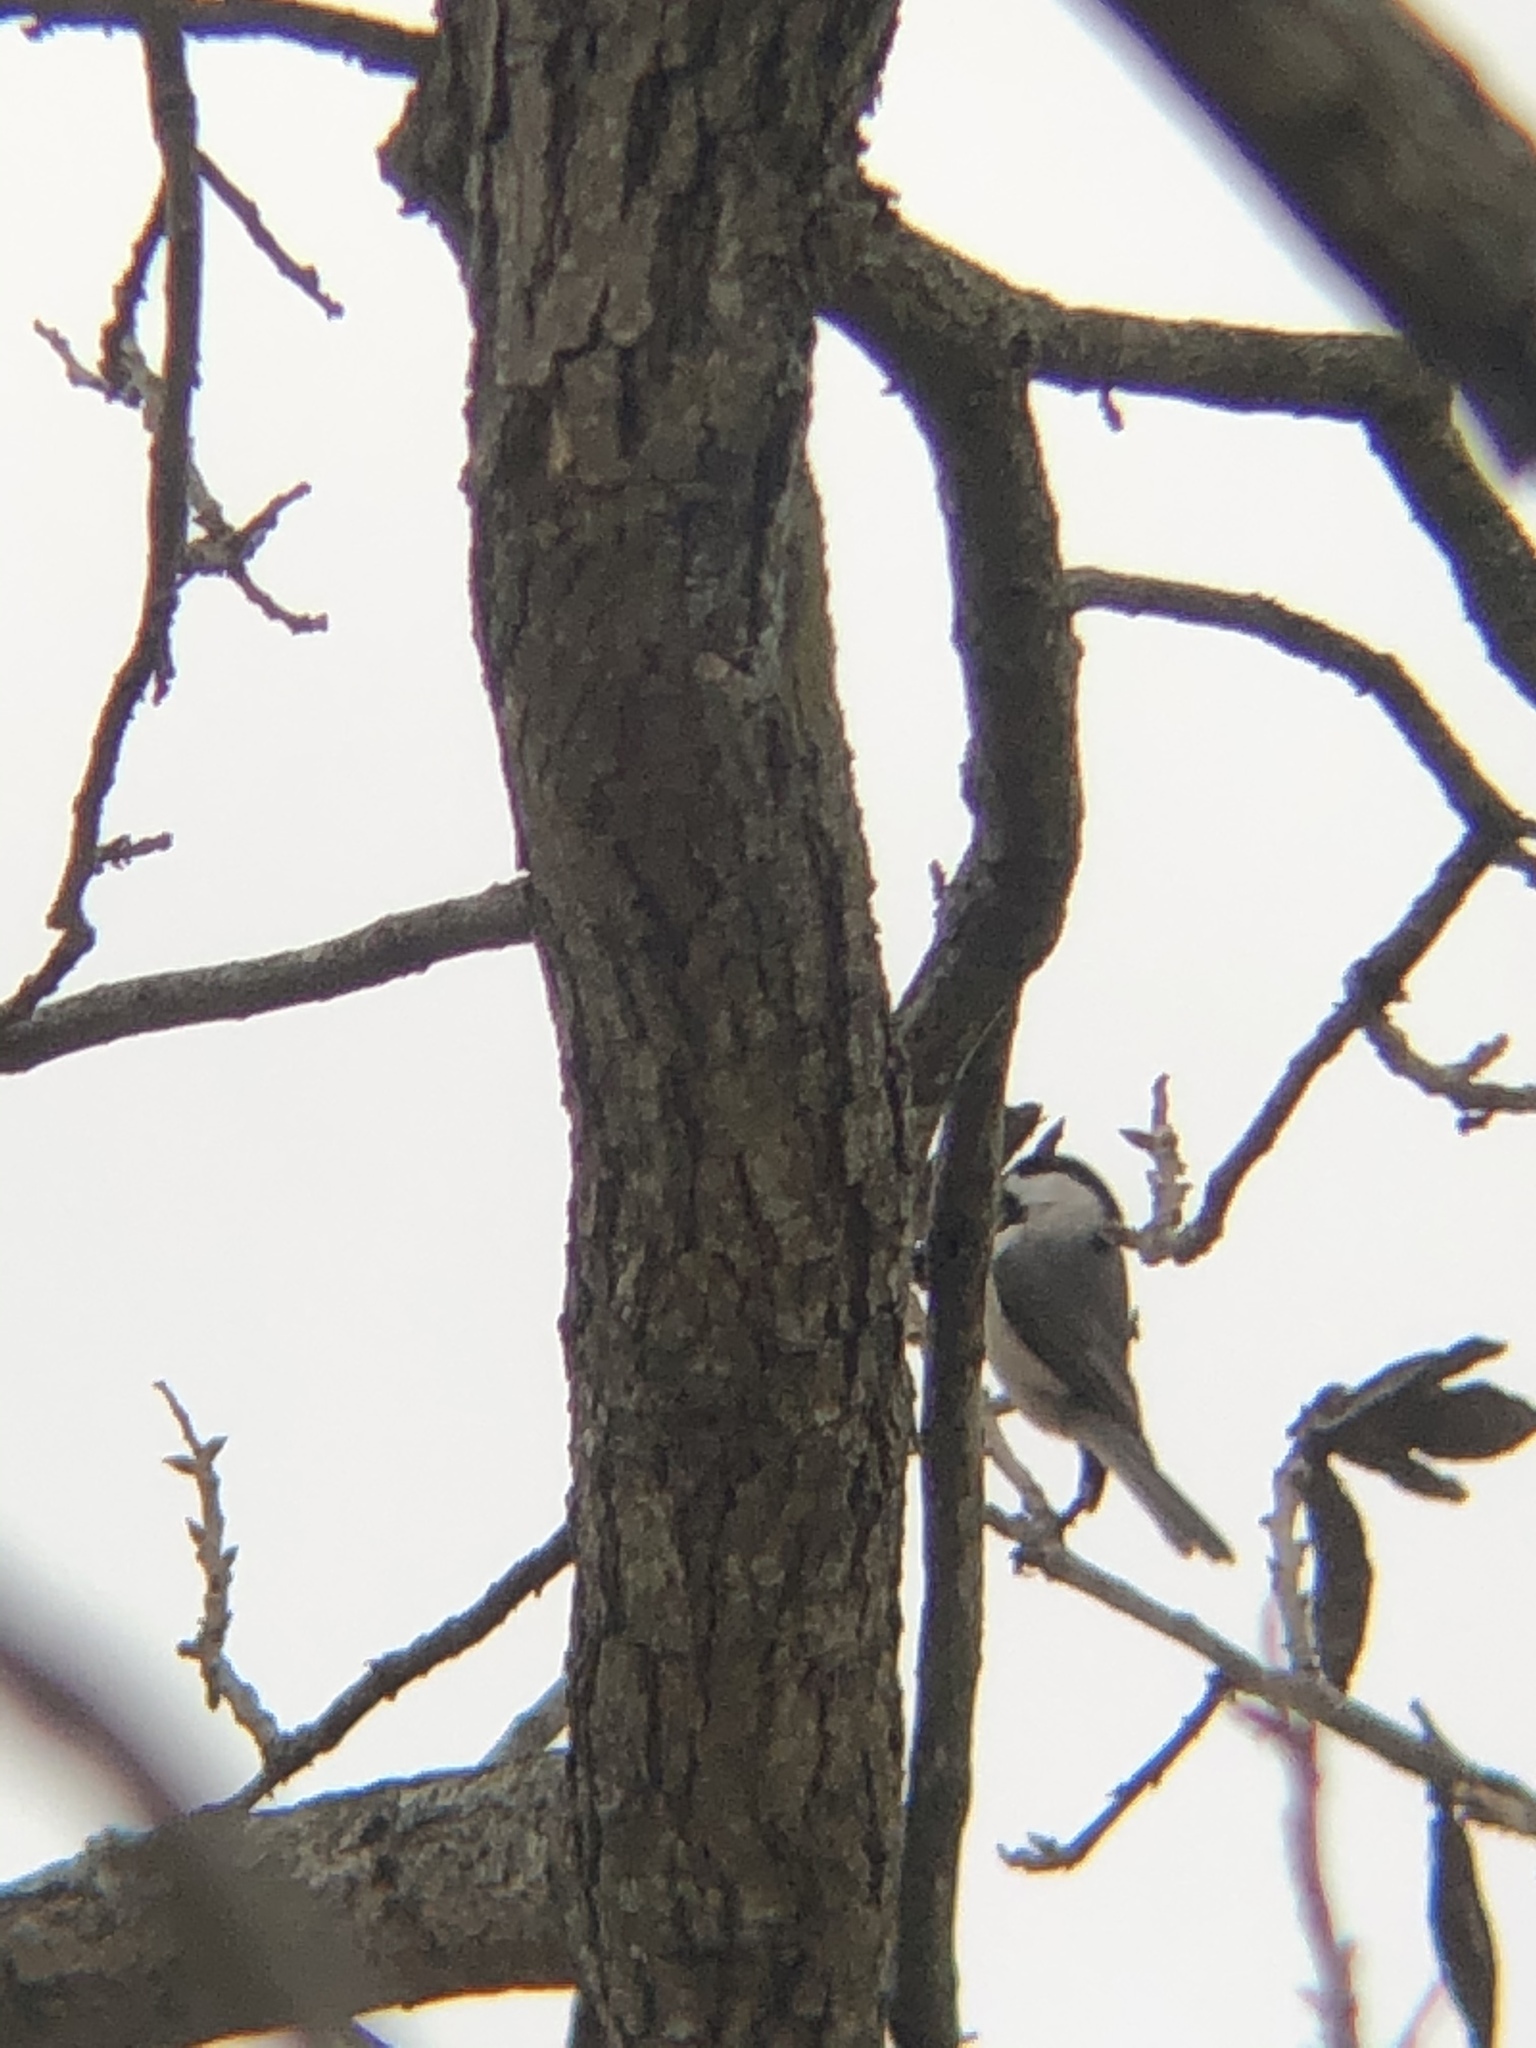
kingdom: Animalia
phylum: Chordata
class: Aves
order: Passeriformes
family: Paridae
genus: Poecile
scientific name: Poecile carolinensis
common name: Carolina chickadee
